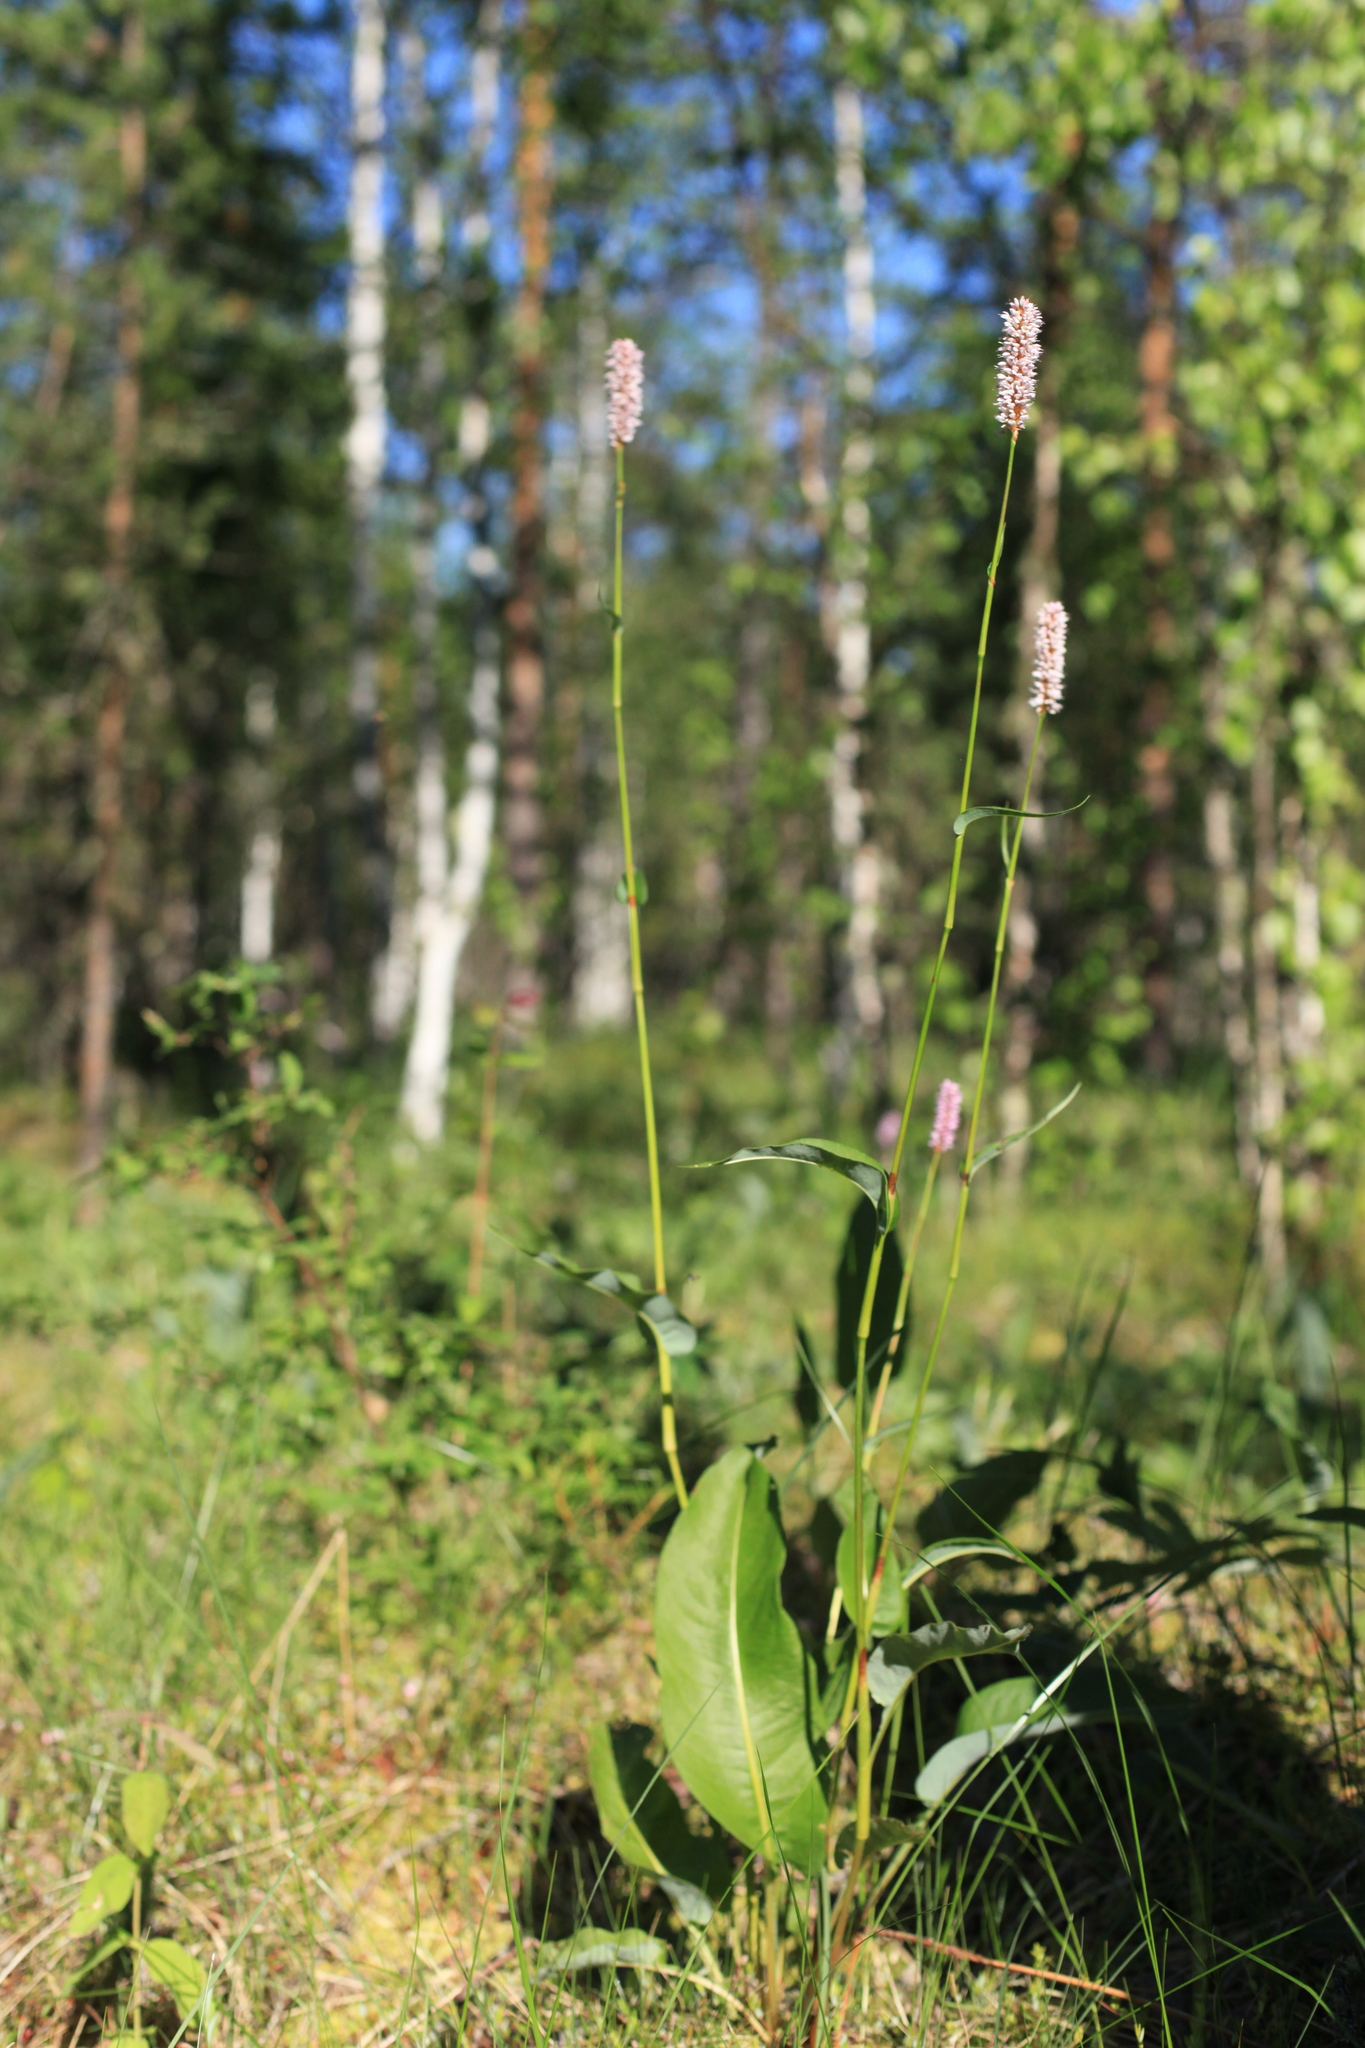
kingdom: Plantae
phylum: Tracheophyta
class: Magnoliopsida
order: Caryophyllales
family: Polygonaceae
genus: Bistorta
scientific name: Bistorta officinalis
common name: Common bistort
